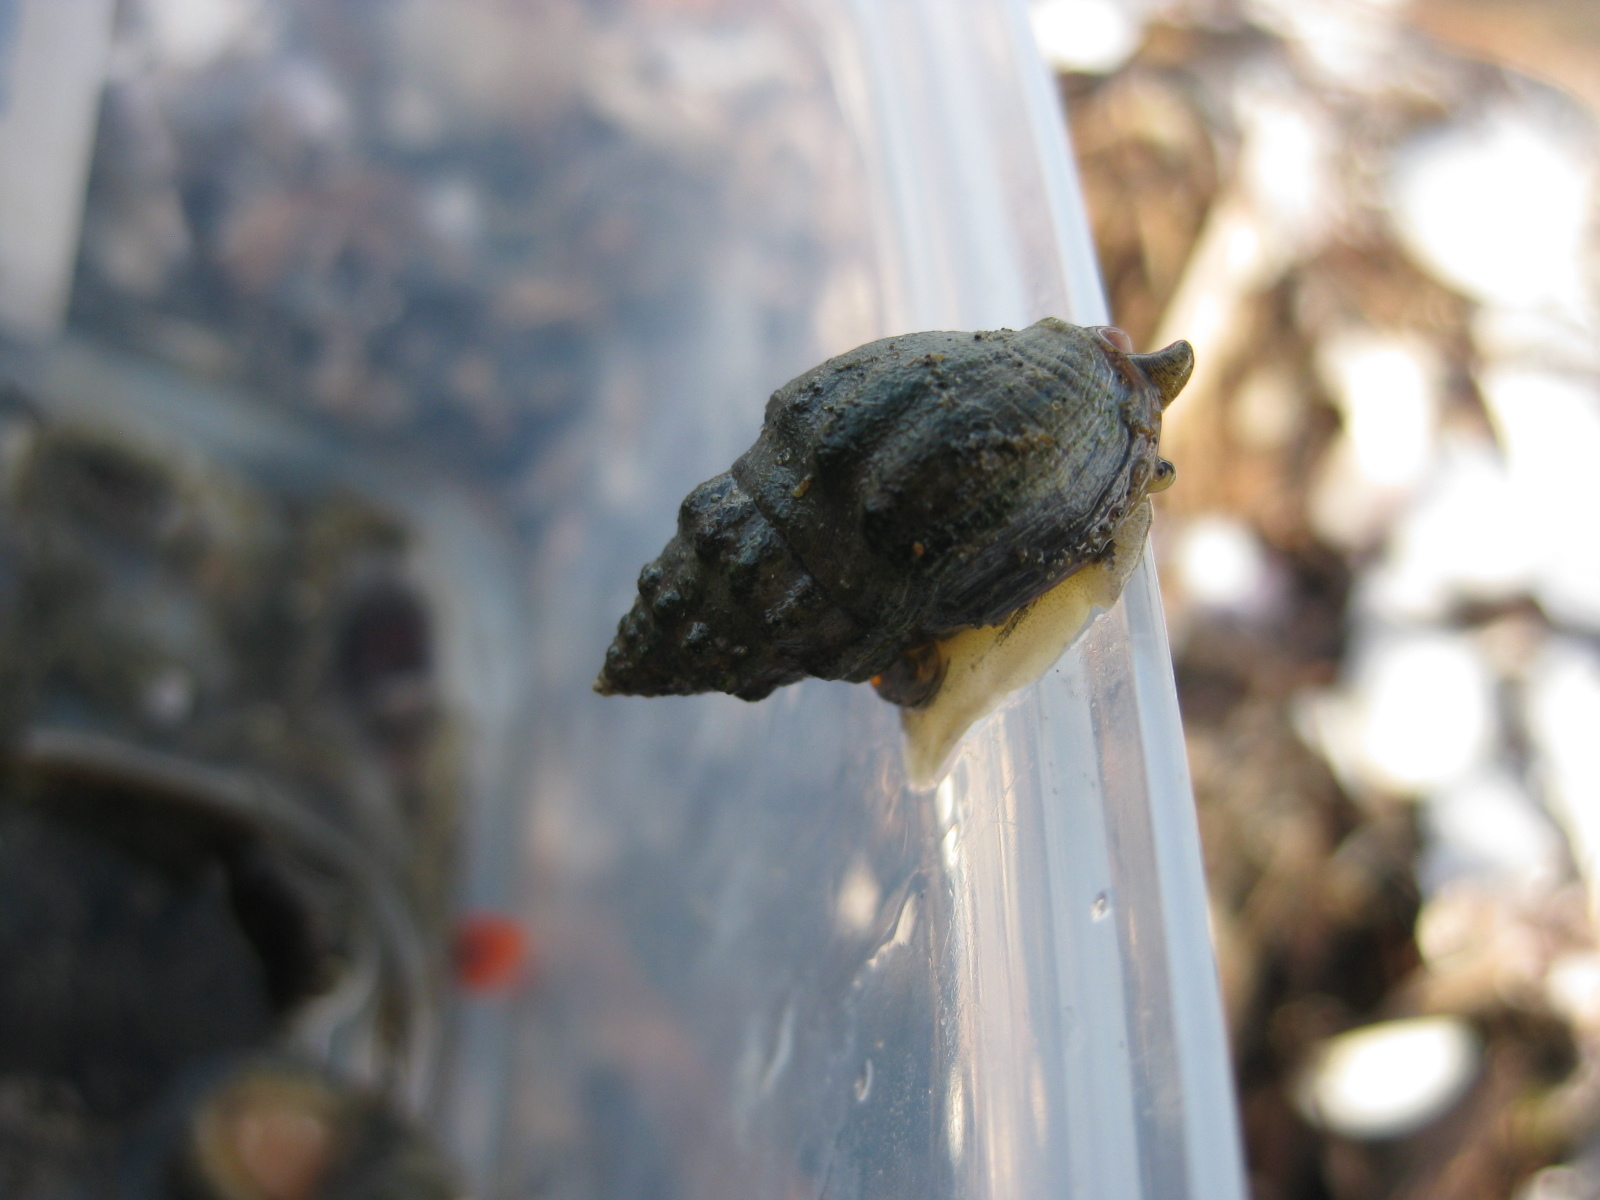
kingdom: Animalia
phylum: Mollusca
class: Gastropoda
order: Neogastropoda
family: Cominellidae
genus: Cominella
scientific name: Cominella glandiformis
